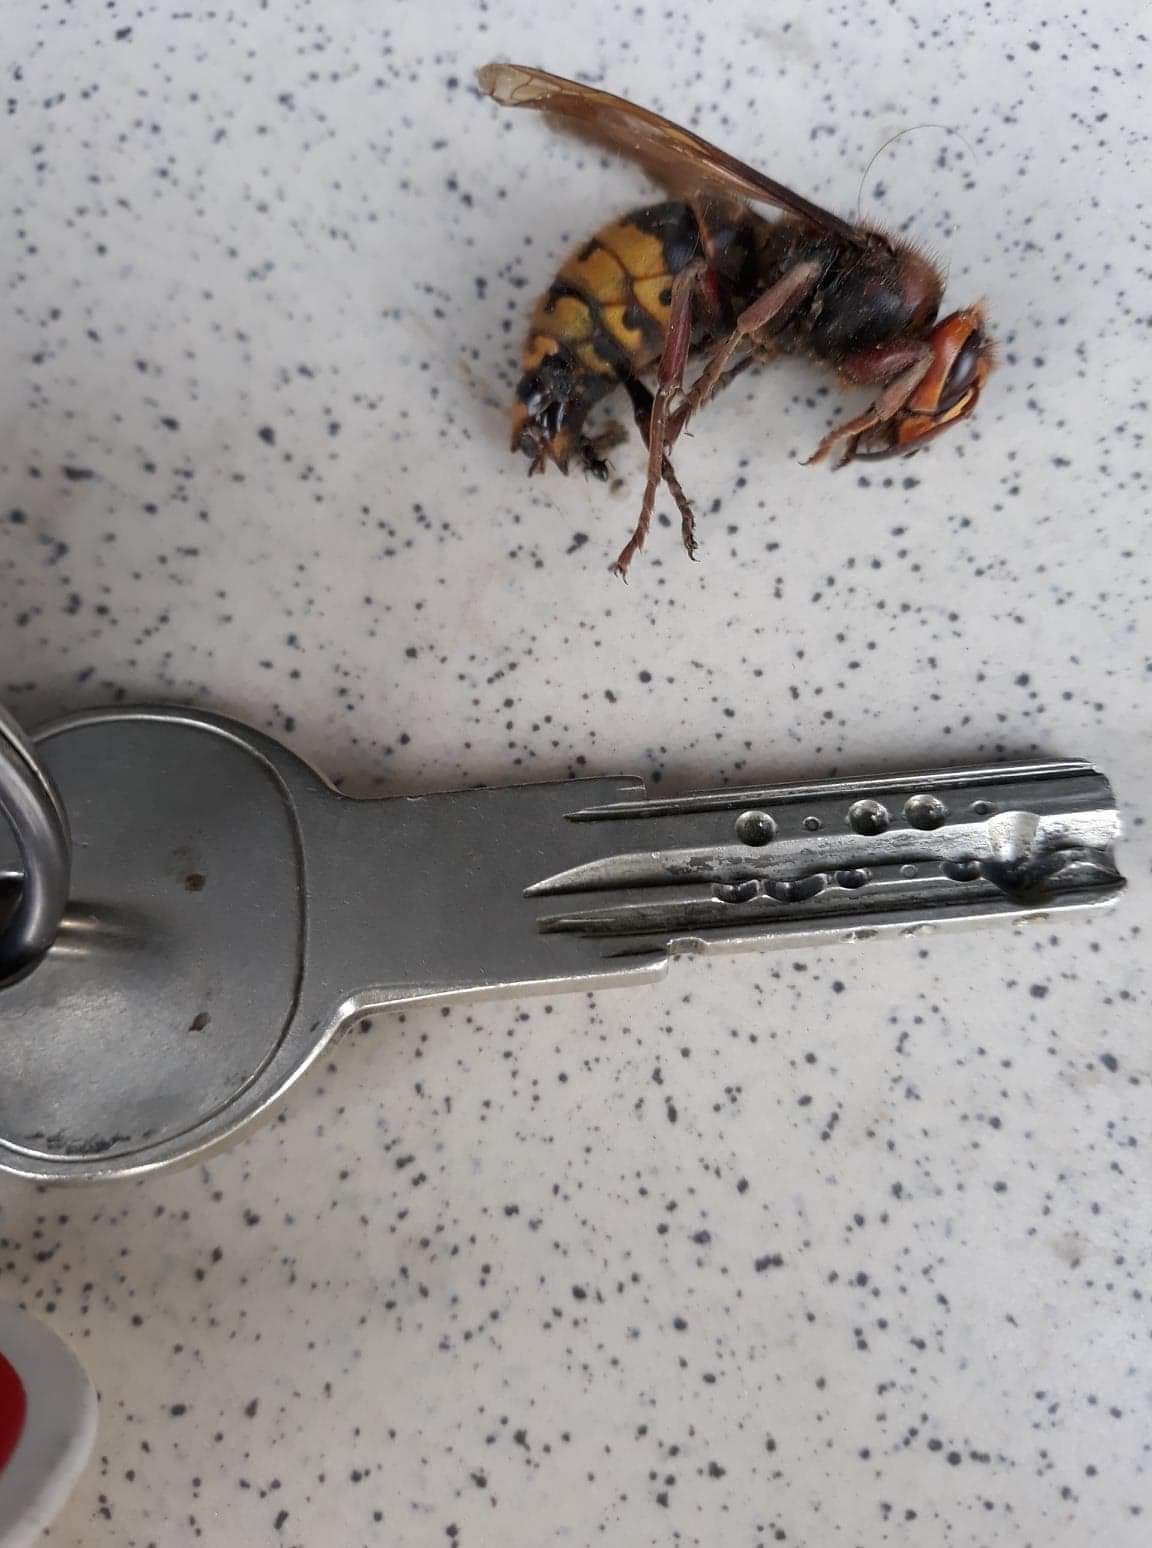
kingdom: Animalia
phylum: Arthropoda
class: Insecta
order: Hymenoptera
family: Vespidae
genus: Vespa
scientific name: Vespa crabro
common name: Hornet
